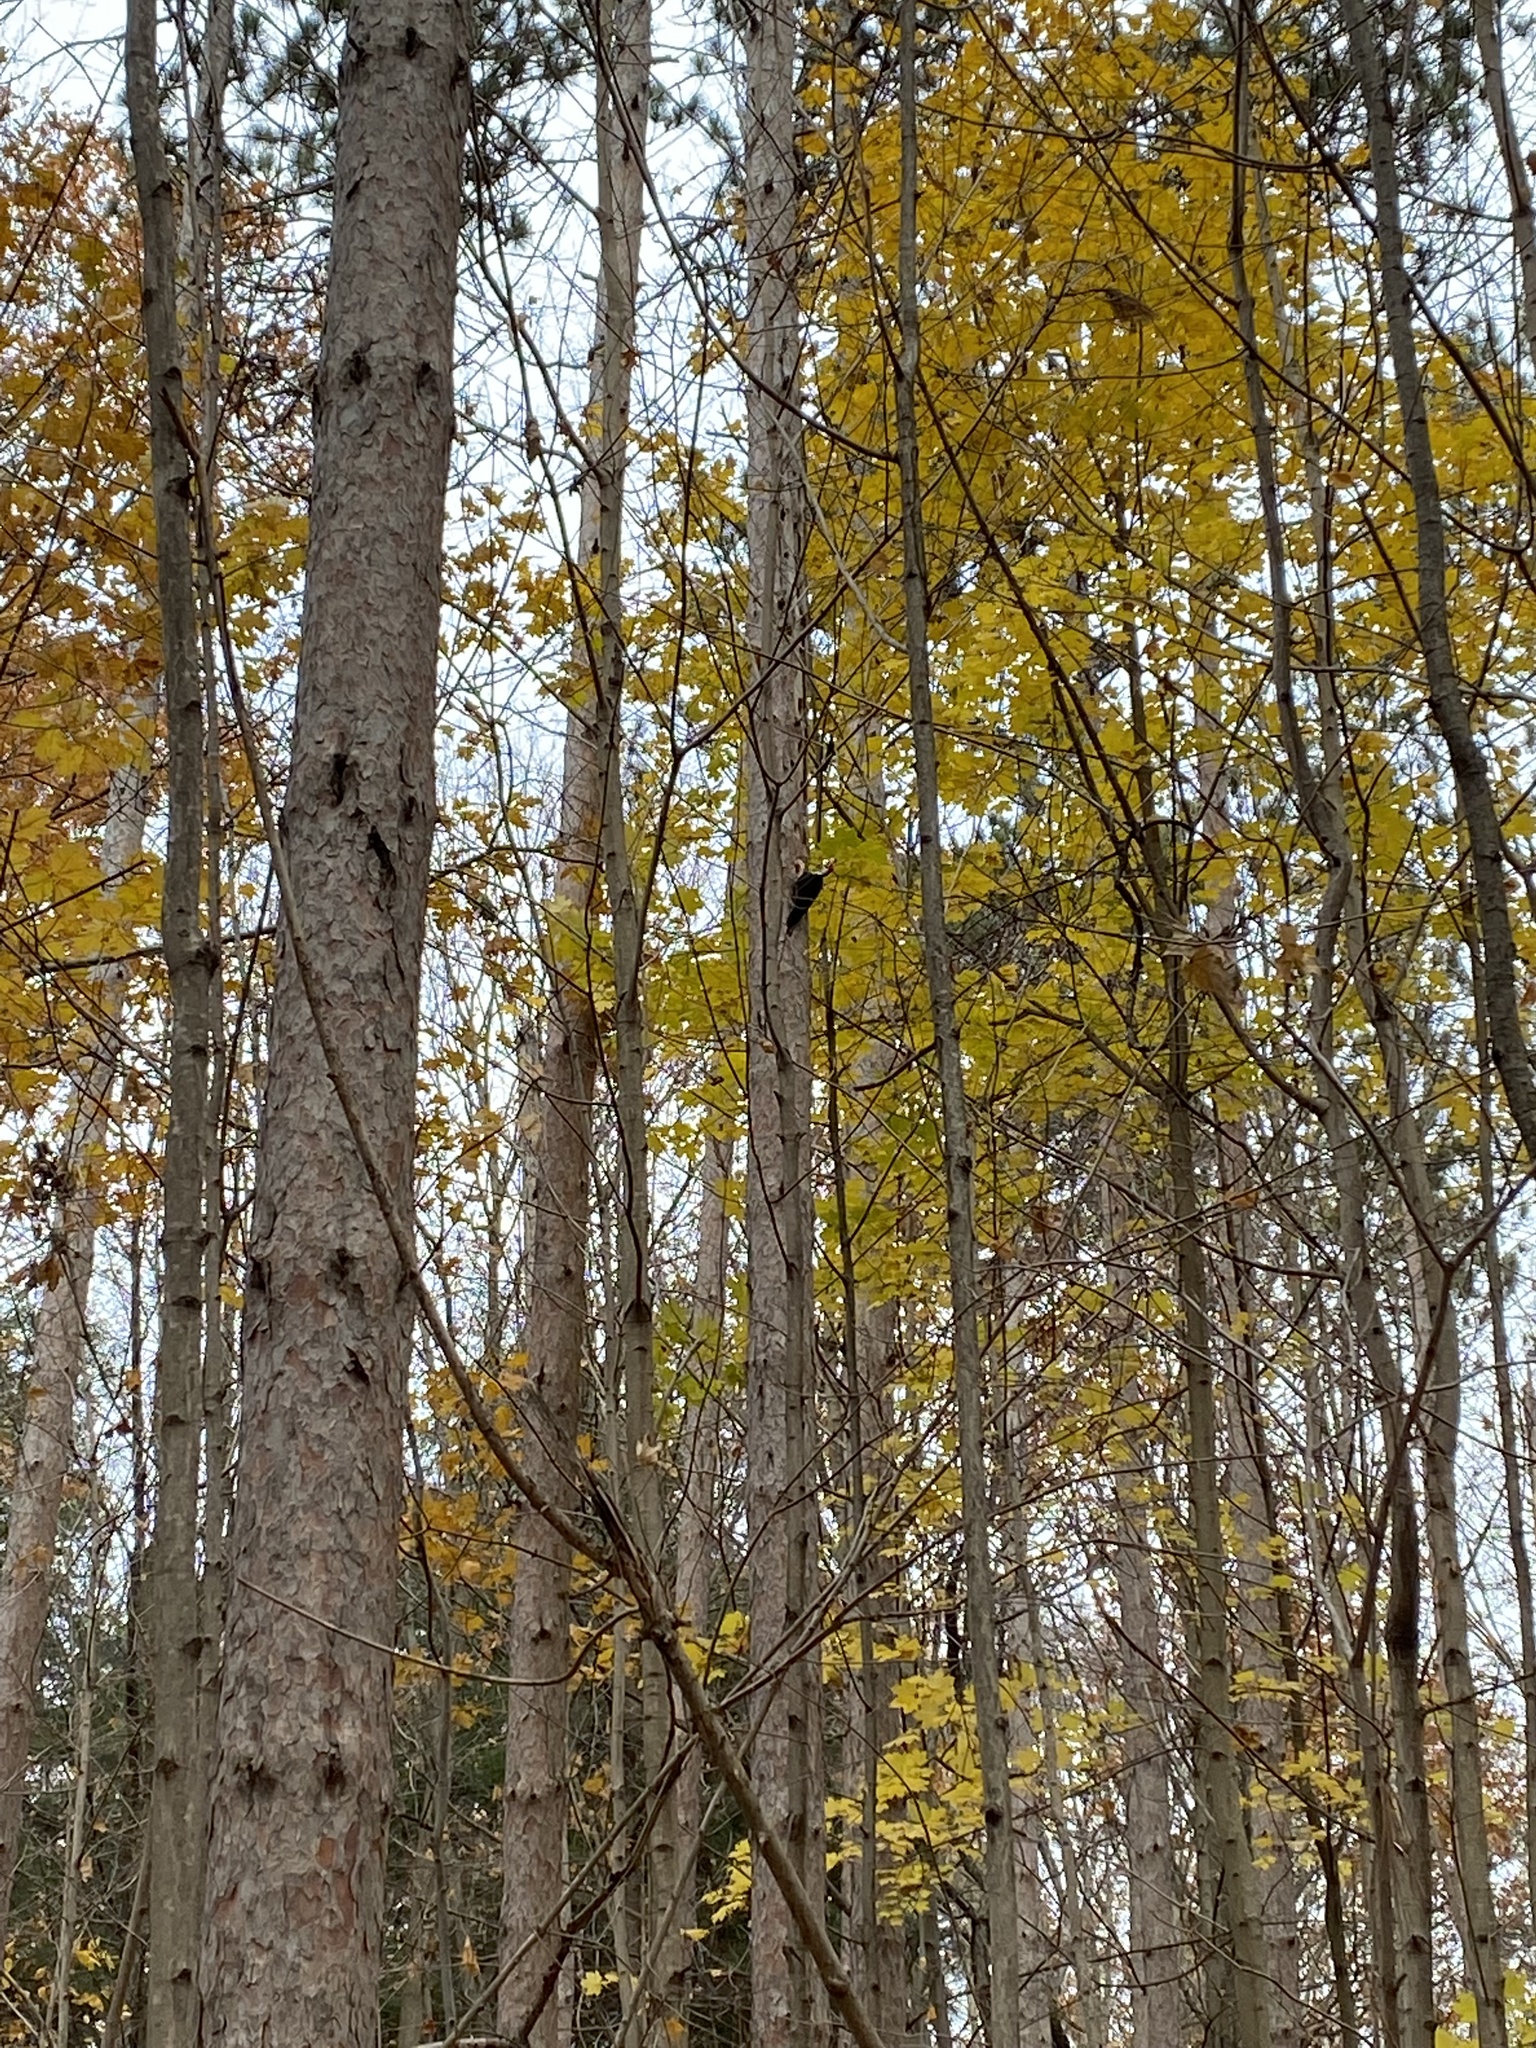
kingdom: Animalia
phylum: Chordata
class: Aves
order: Piciformes
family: Picidae
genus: Dryocopus
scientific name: Dryocopus pileatus
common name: Pileated woodpecker
